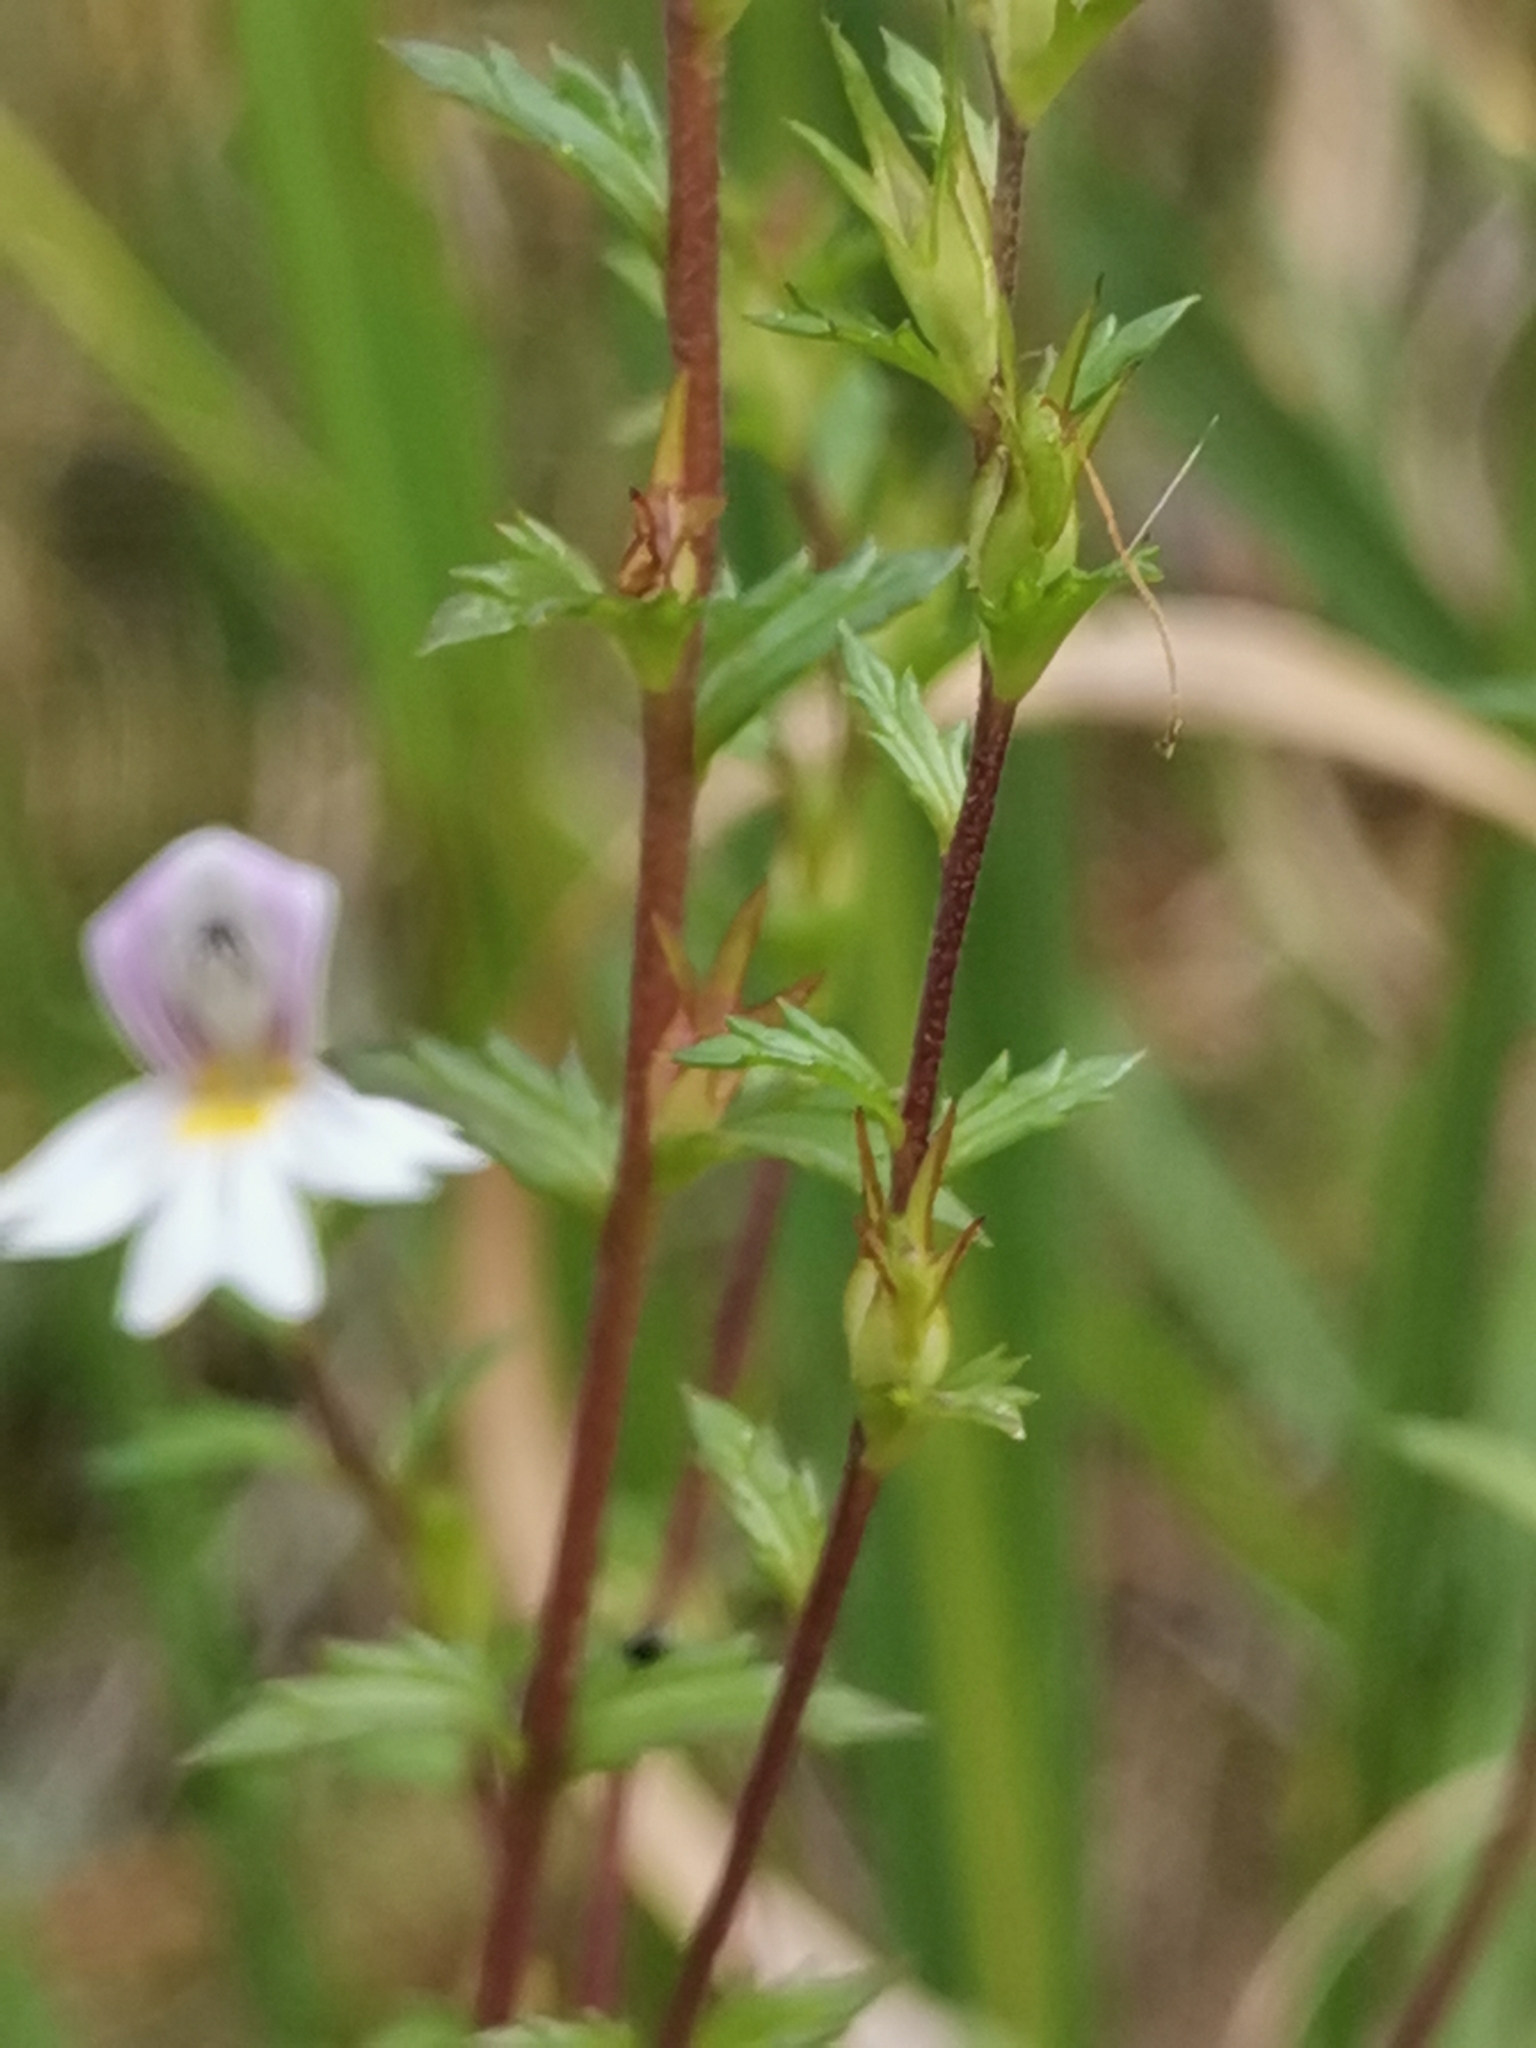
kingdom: Plantae
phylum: Tracheophyta
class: Magnoliopsida
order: Lamiales
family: Orobanchaceae
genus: Euphrasia
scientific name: Euphrasia marchesettii
